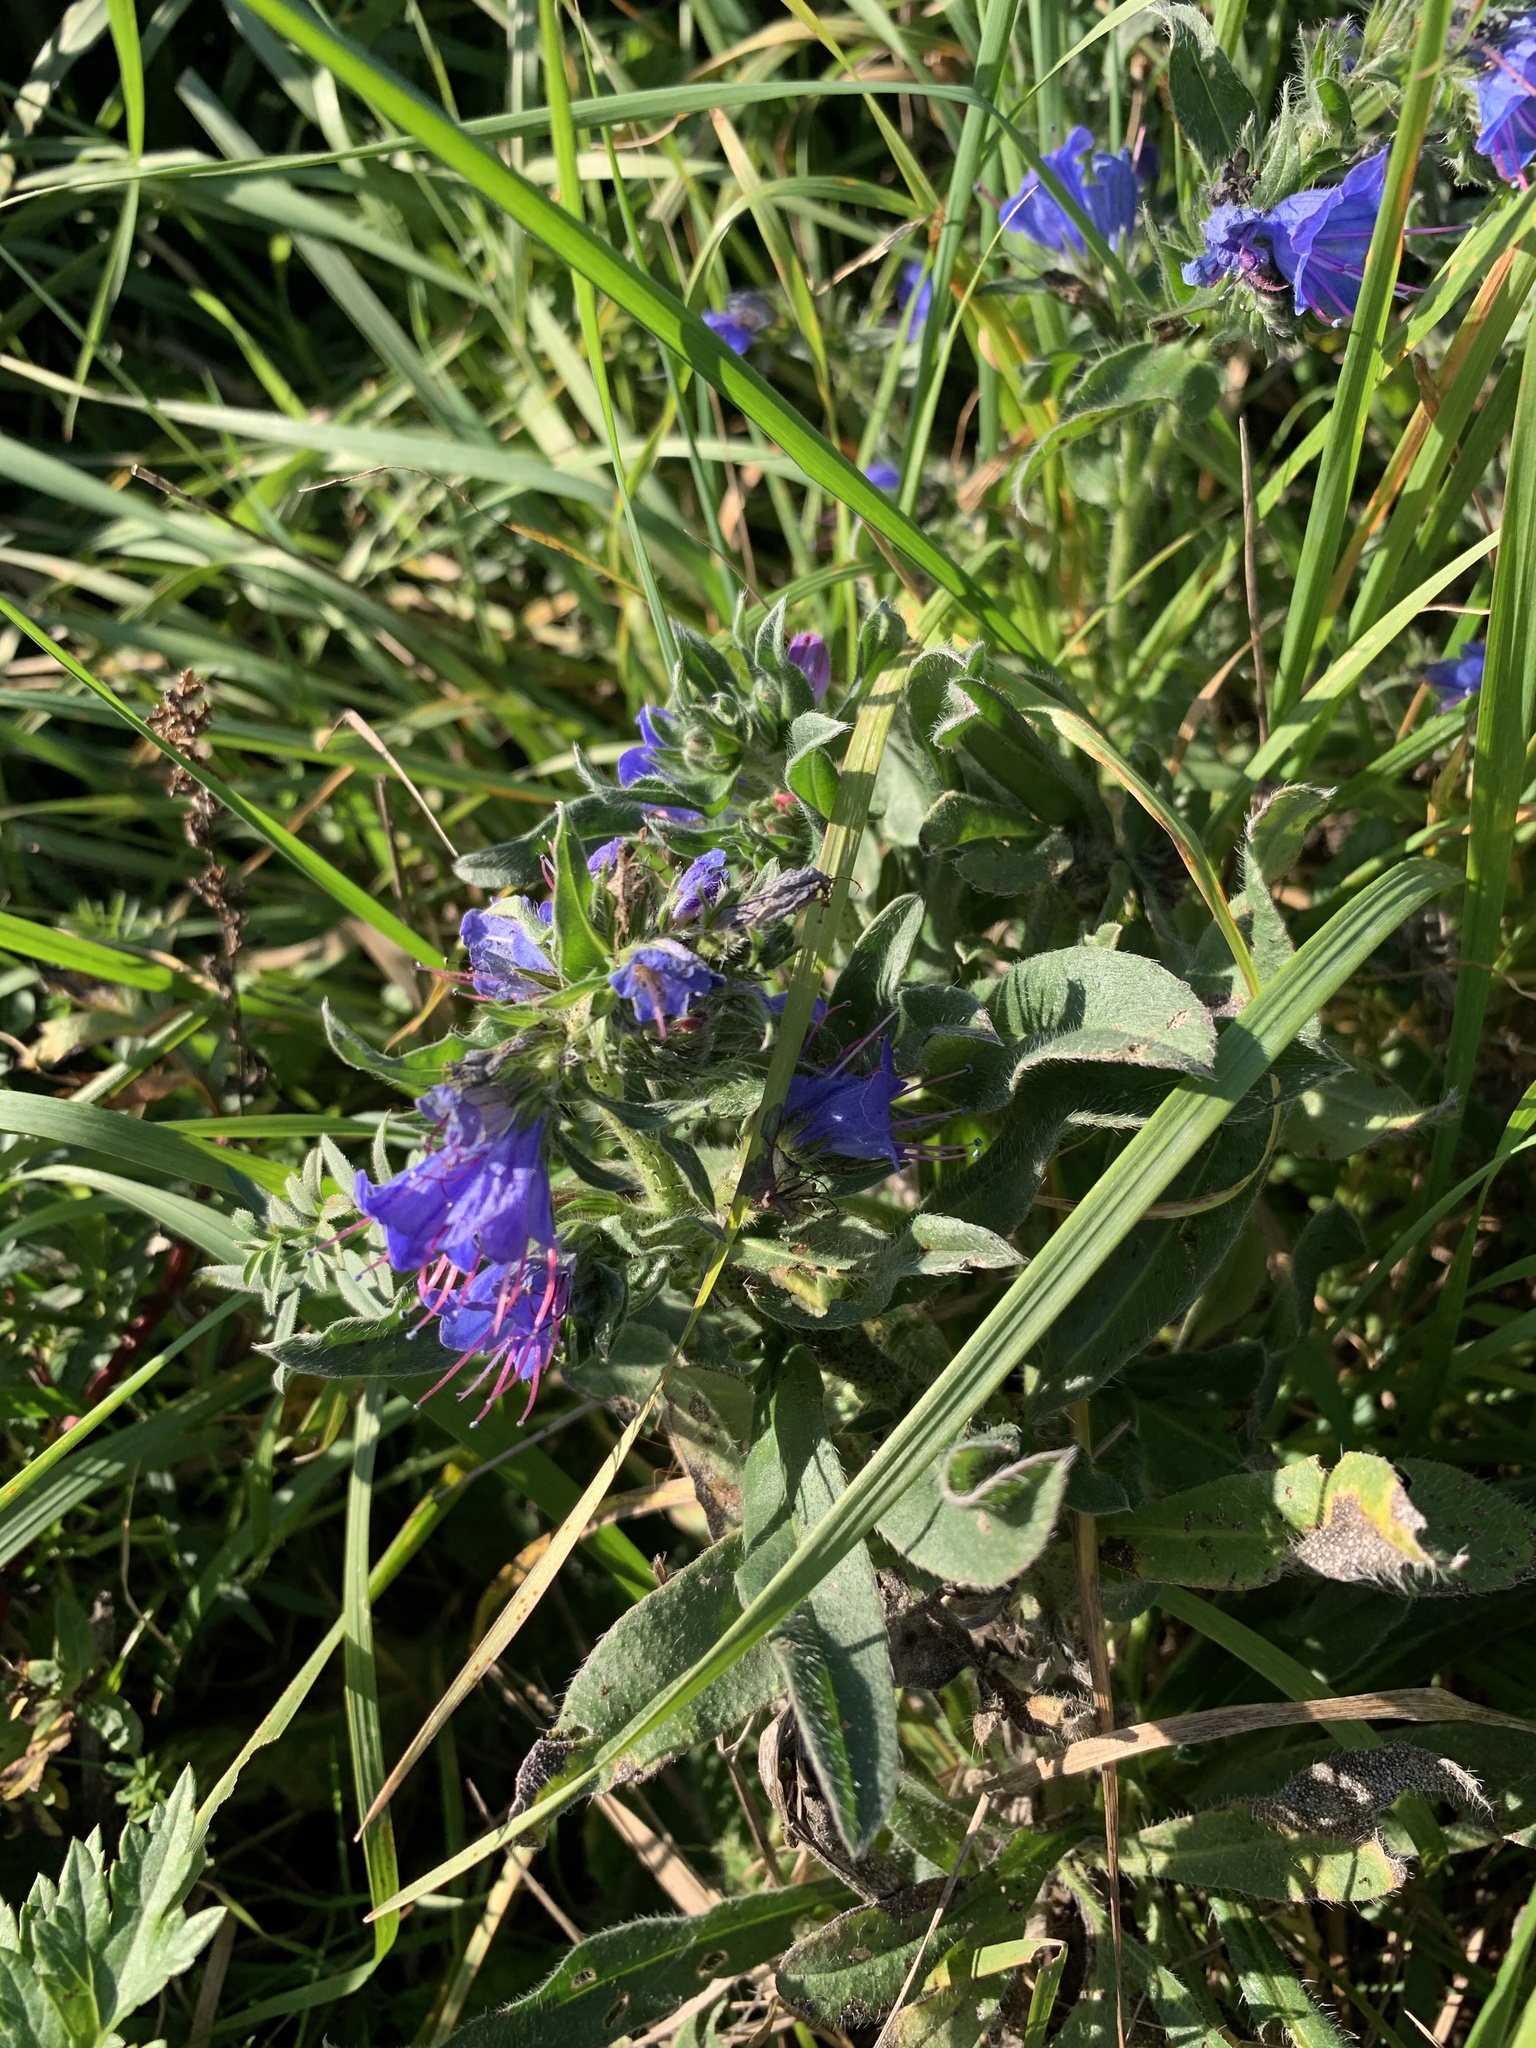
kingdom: Plantae
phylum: Tracheophyta
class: Magnoliopsida
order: Boraginales
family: Boraginaceae
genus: Echium
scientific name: Echium vulgare
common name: Common viper's bugloss
